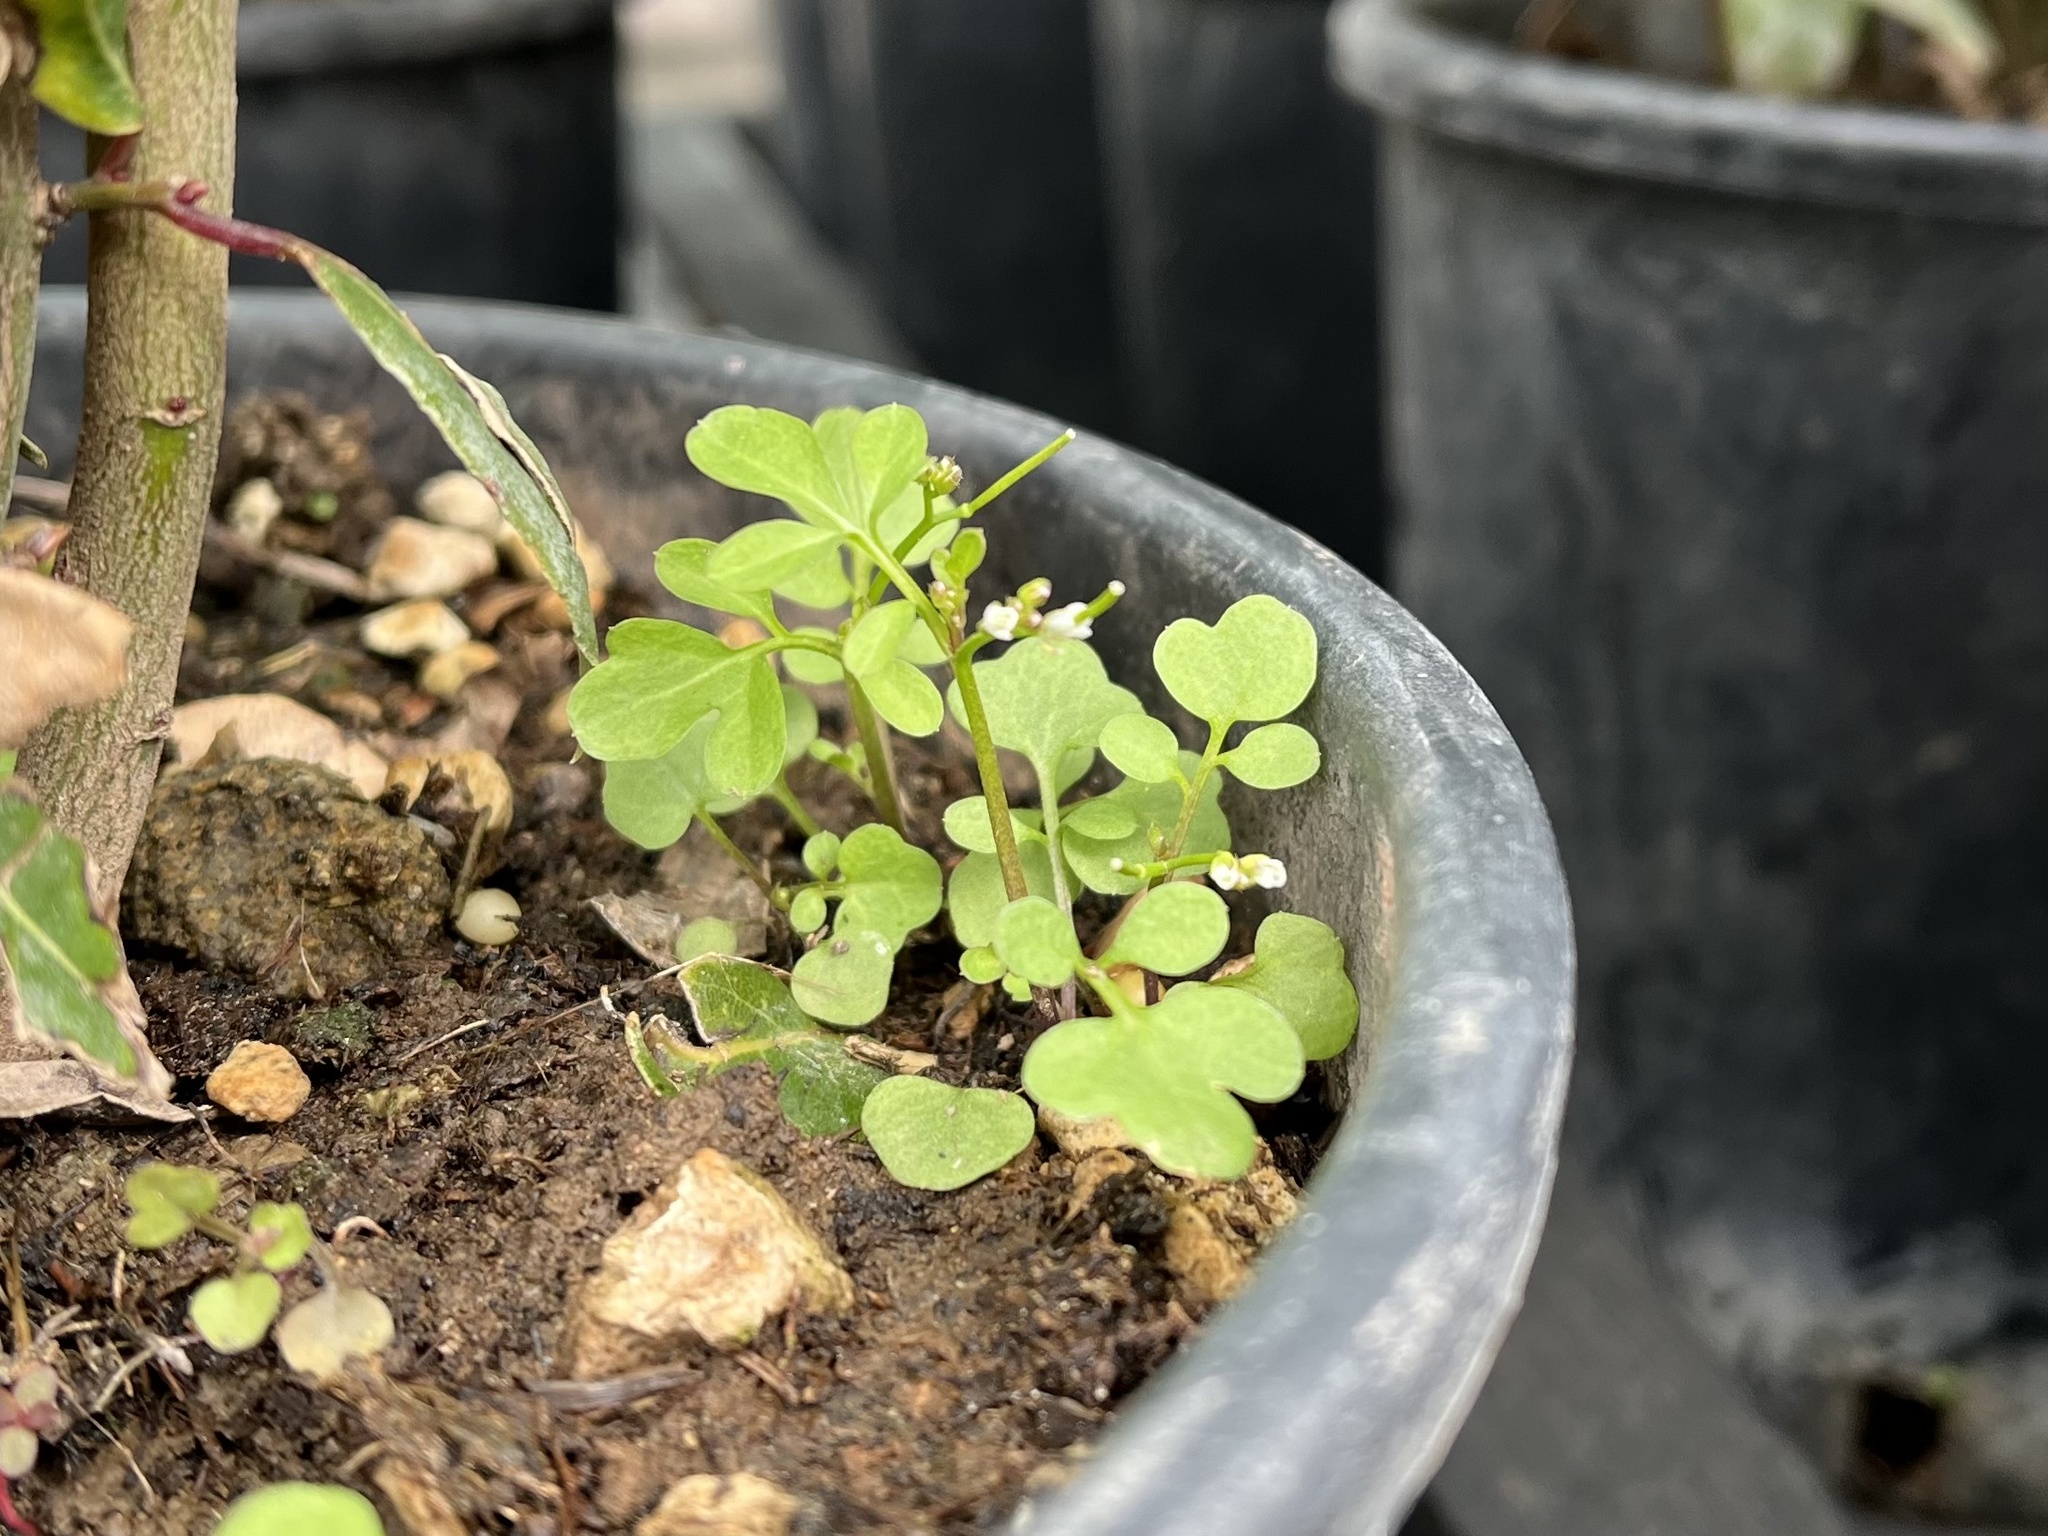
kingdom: Plantae
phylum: Tracheophyta
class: Magnoliopsida
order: Brassicales
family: Brassicaceae
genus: Cardamine
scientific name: Cardamine occulta
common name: Asian wavy bittercress
